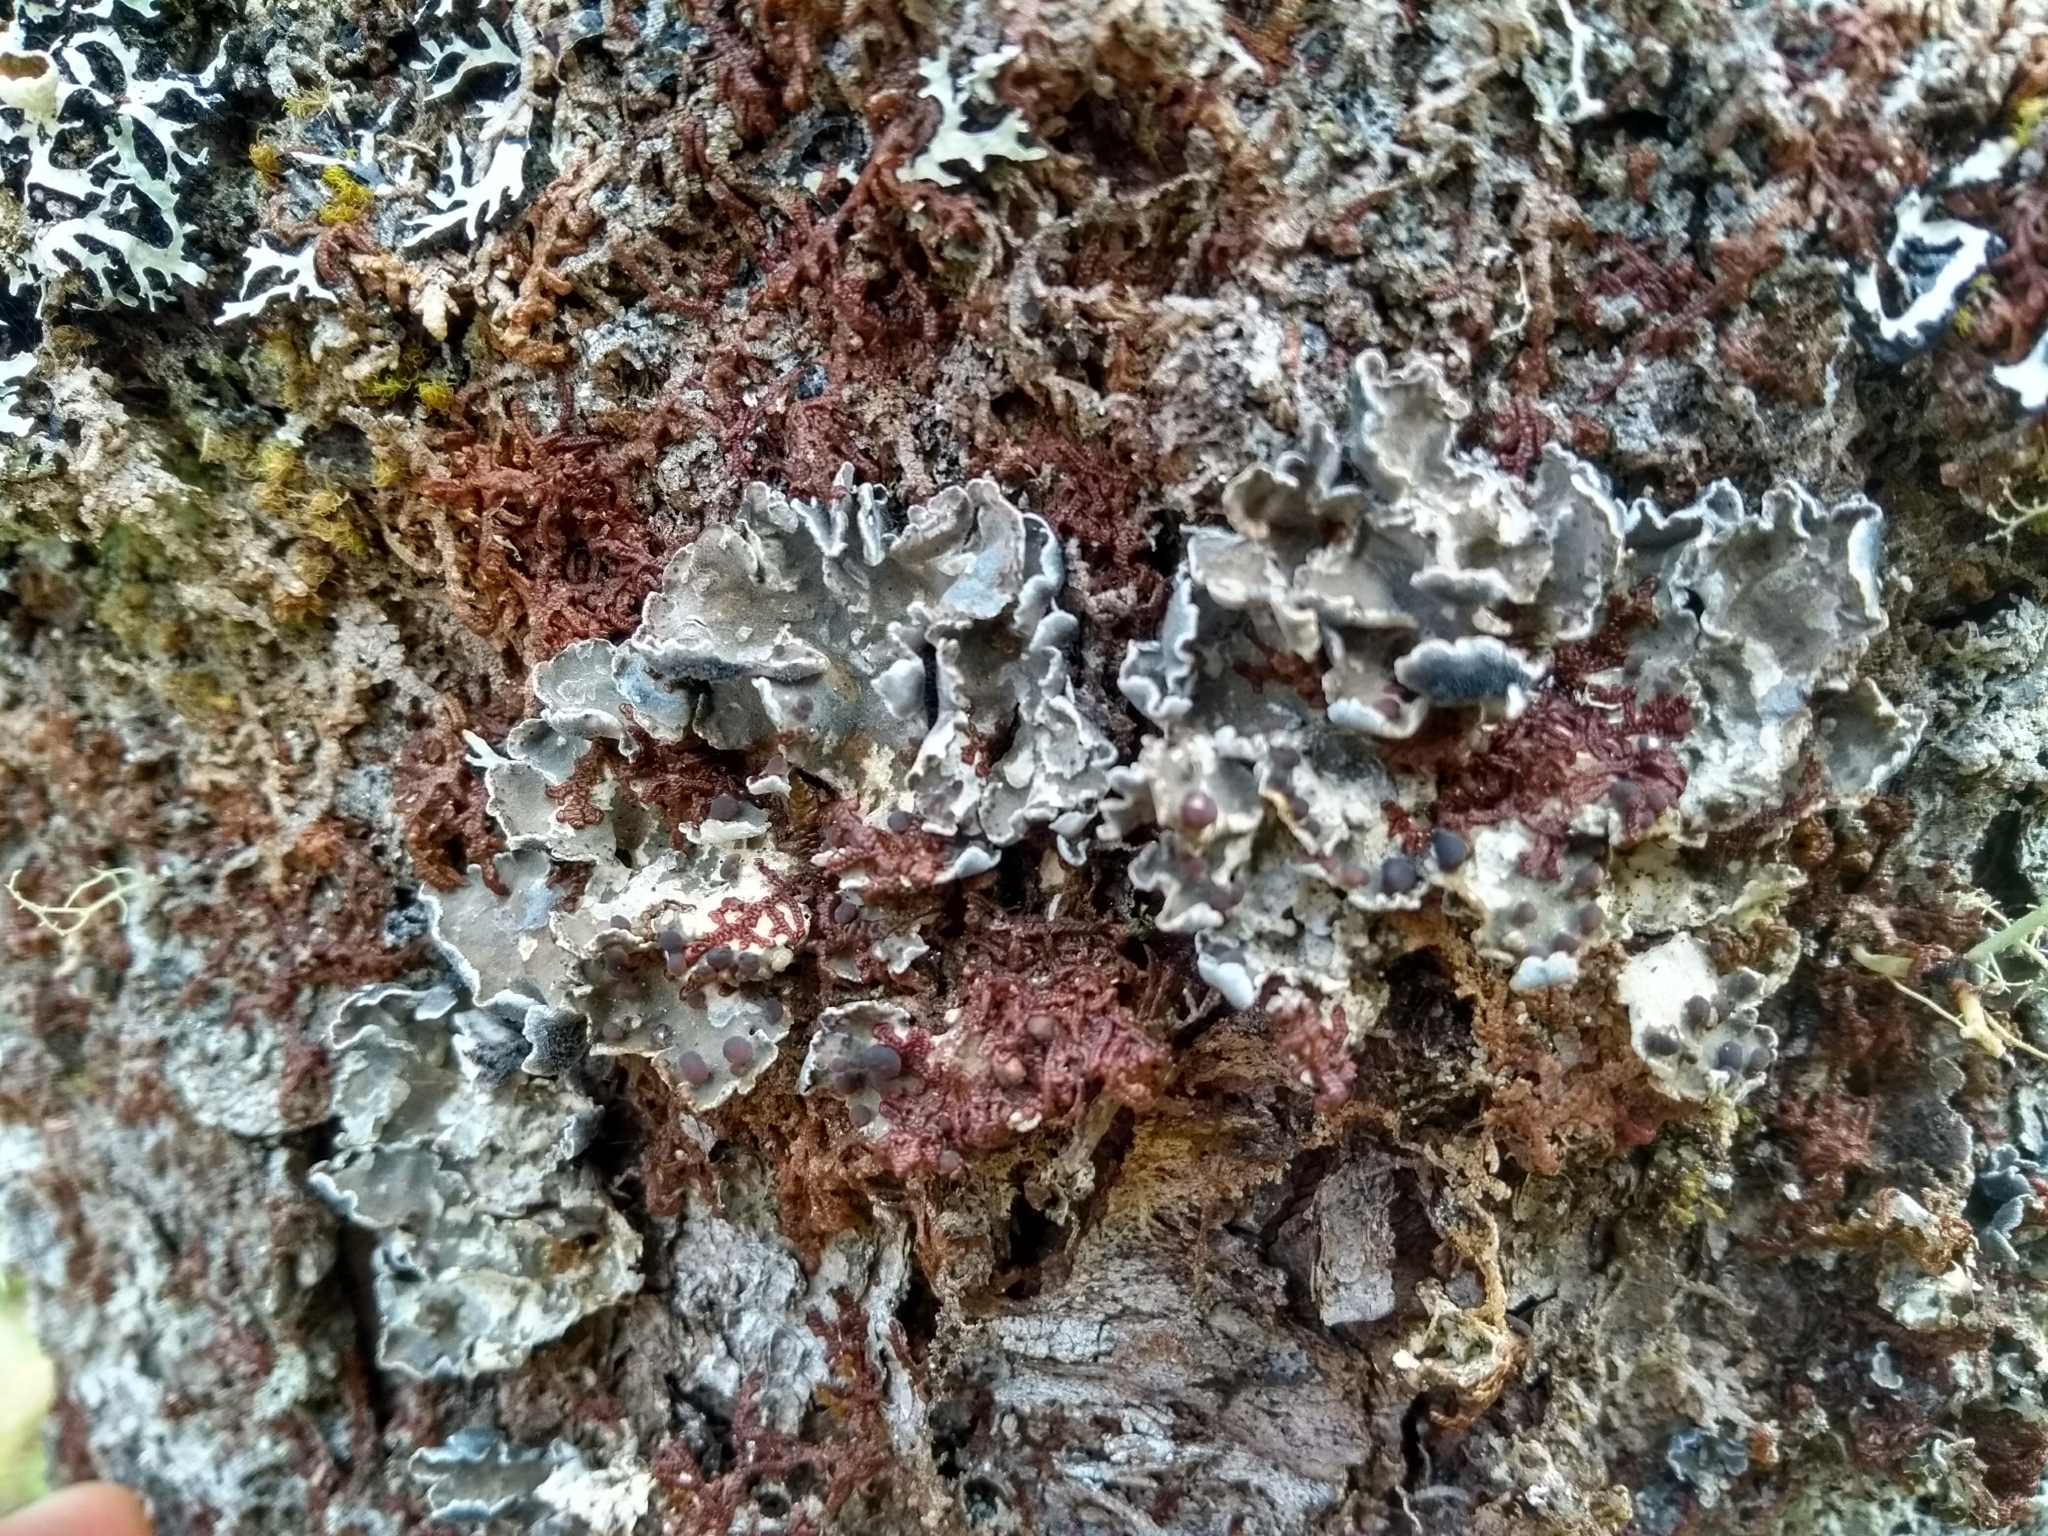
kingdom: Fungi
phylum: Ascomycota
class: Lecanoromycetes
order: Peltigerales
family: Pannariaceae
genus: Erioderma
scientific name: Erioderma pedicellatum
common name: Boreal felt lichen
